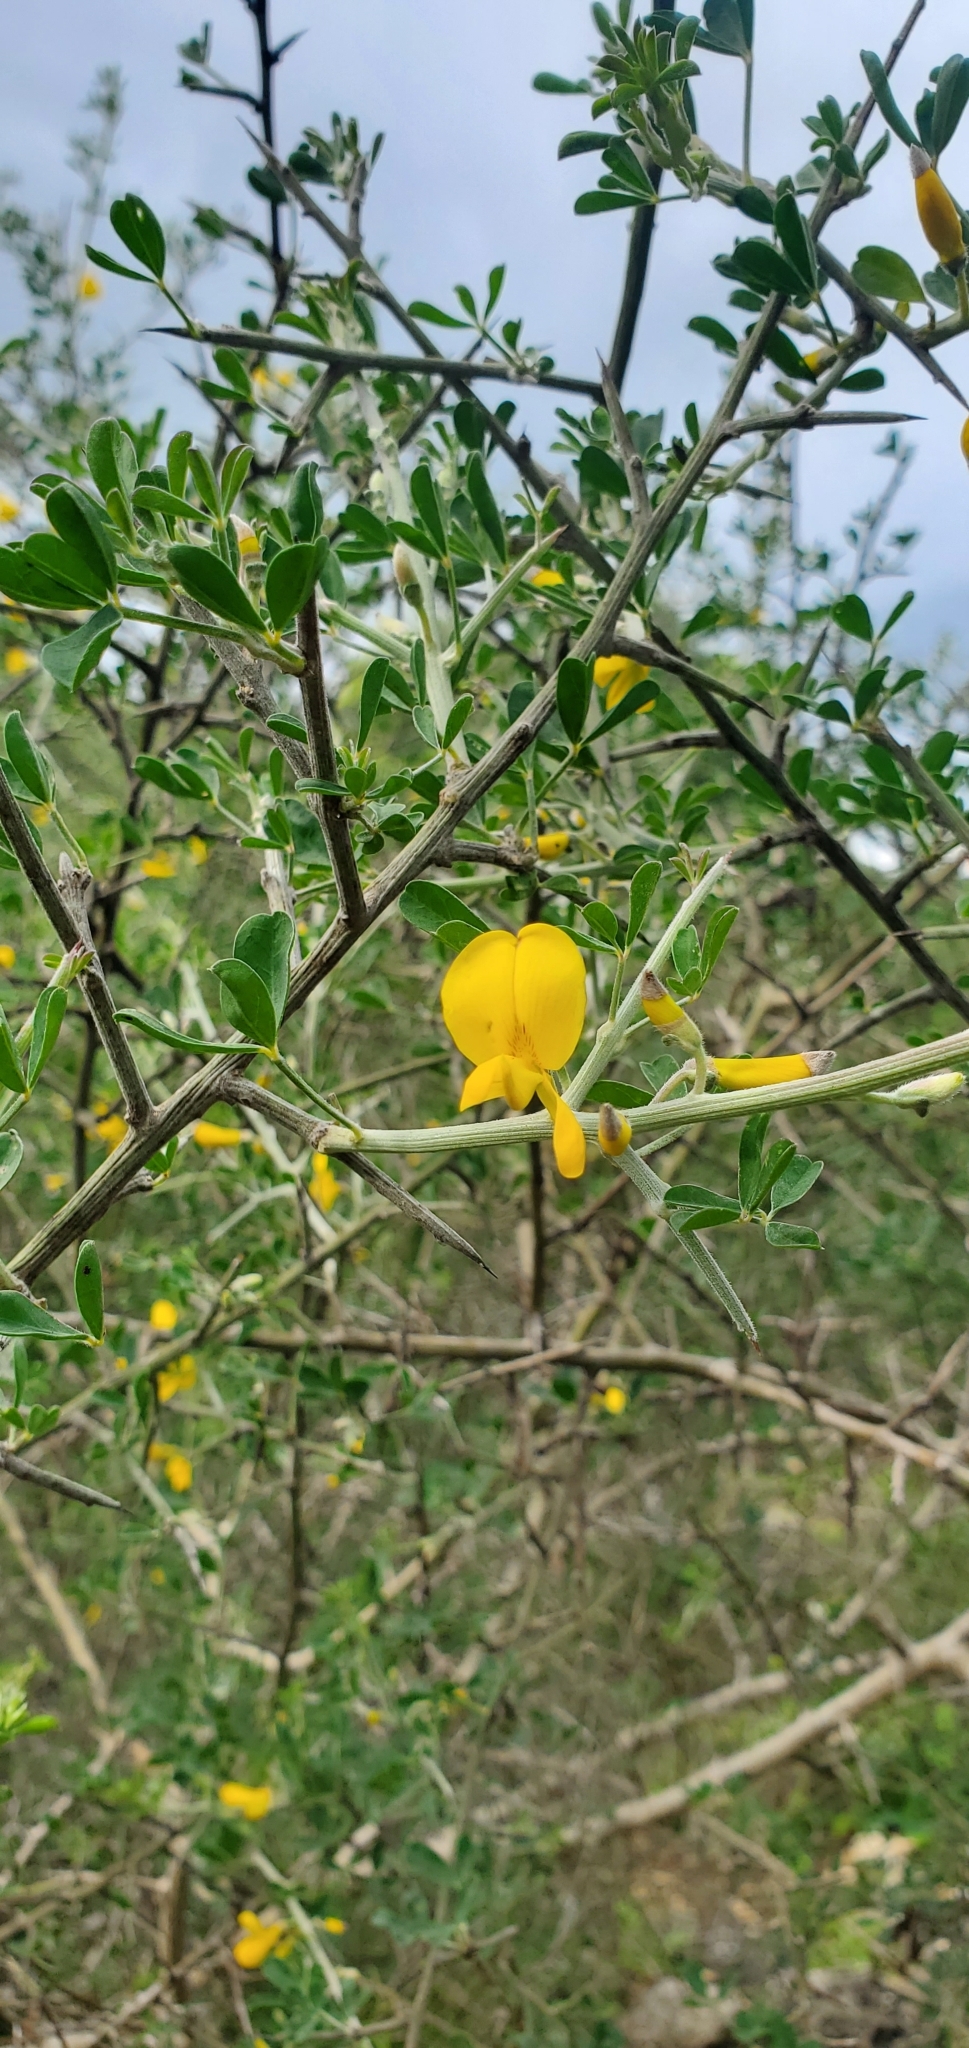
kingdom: Plantae
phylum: Tracheophyta
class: Magnoliopsida
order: Fabales
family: Fabaceae
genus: Calicotome
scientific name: Calicotome villosa
